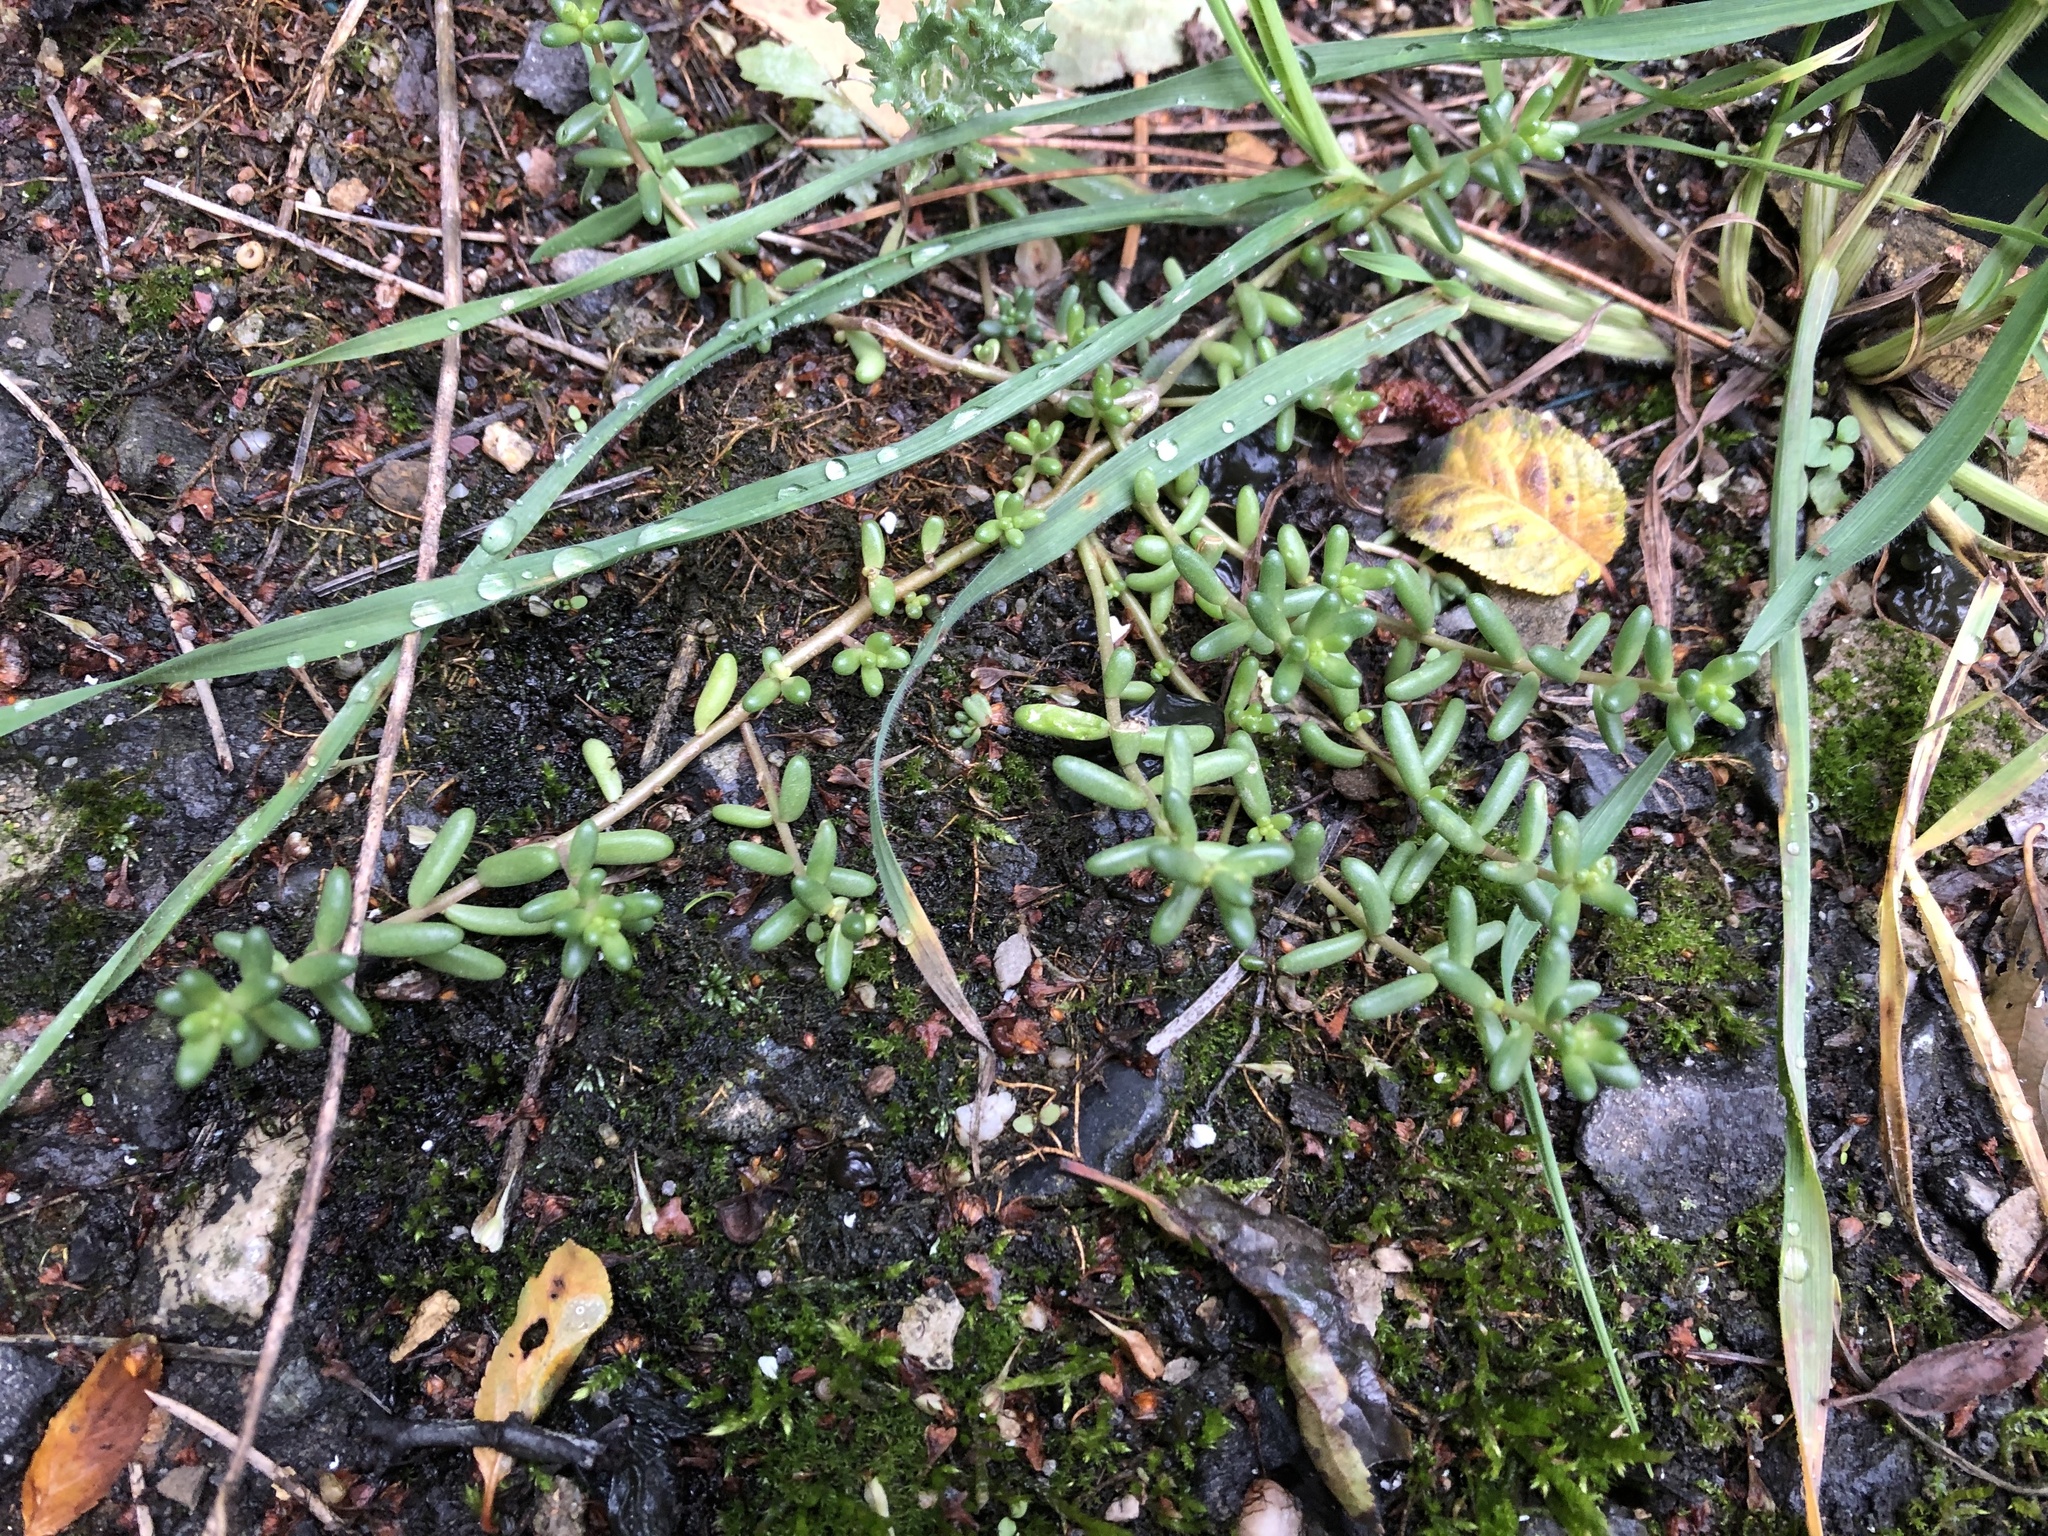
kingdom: Plantae
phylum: Tracheophyta
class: Magnoliopsida
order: Saxifragales
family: Crassulaceae
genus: Sedum
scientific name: Sedum album
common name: White stonecrop
